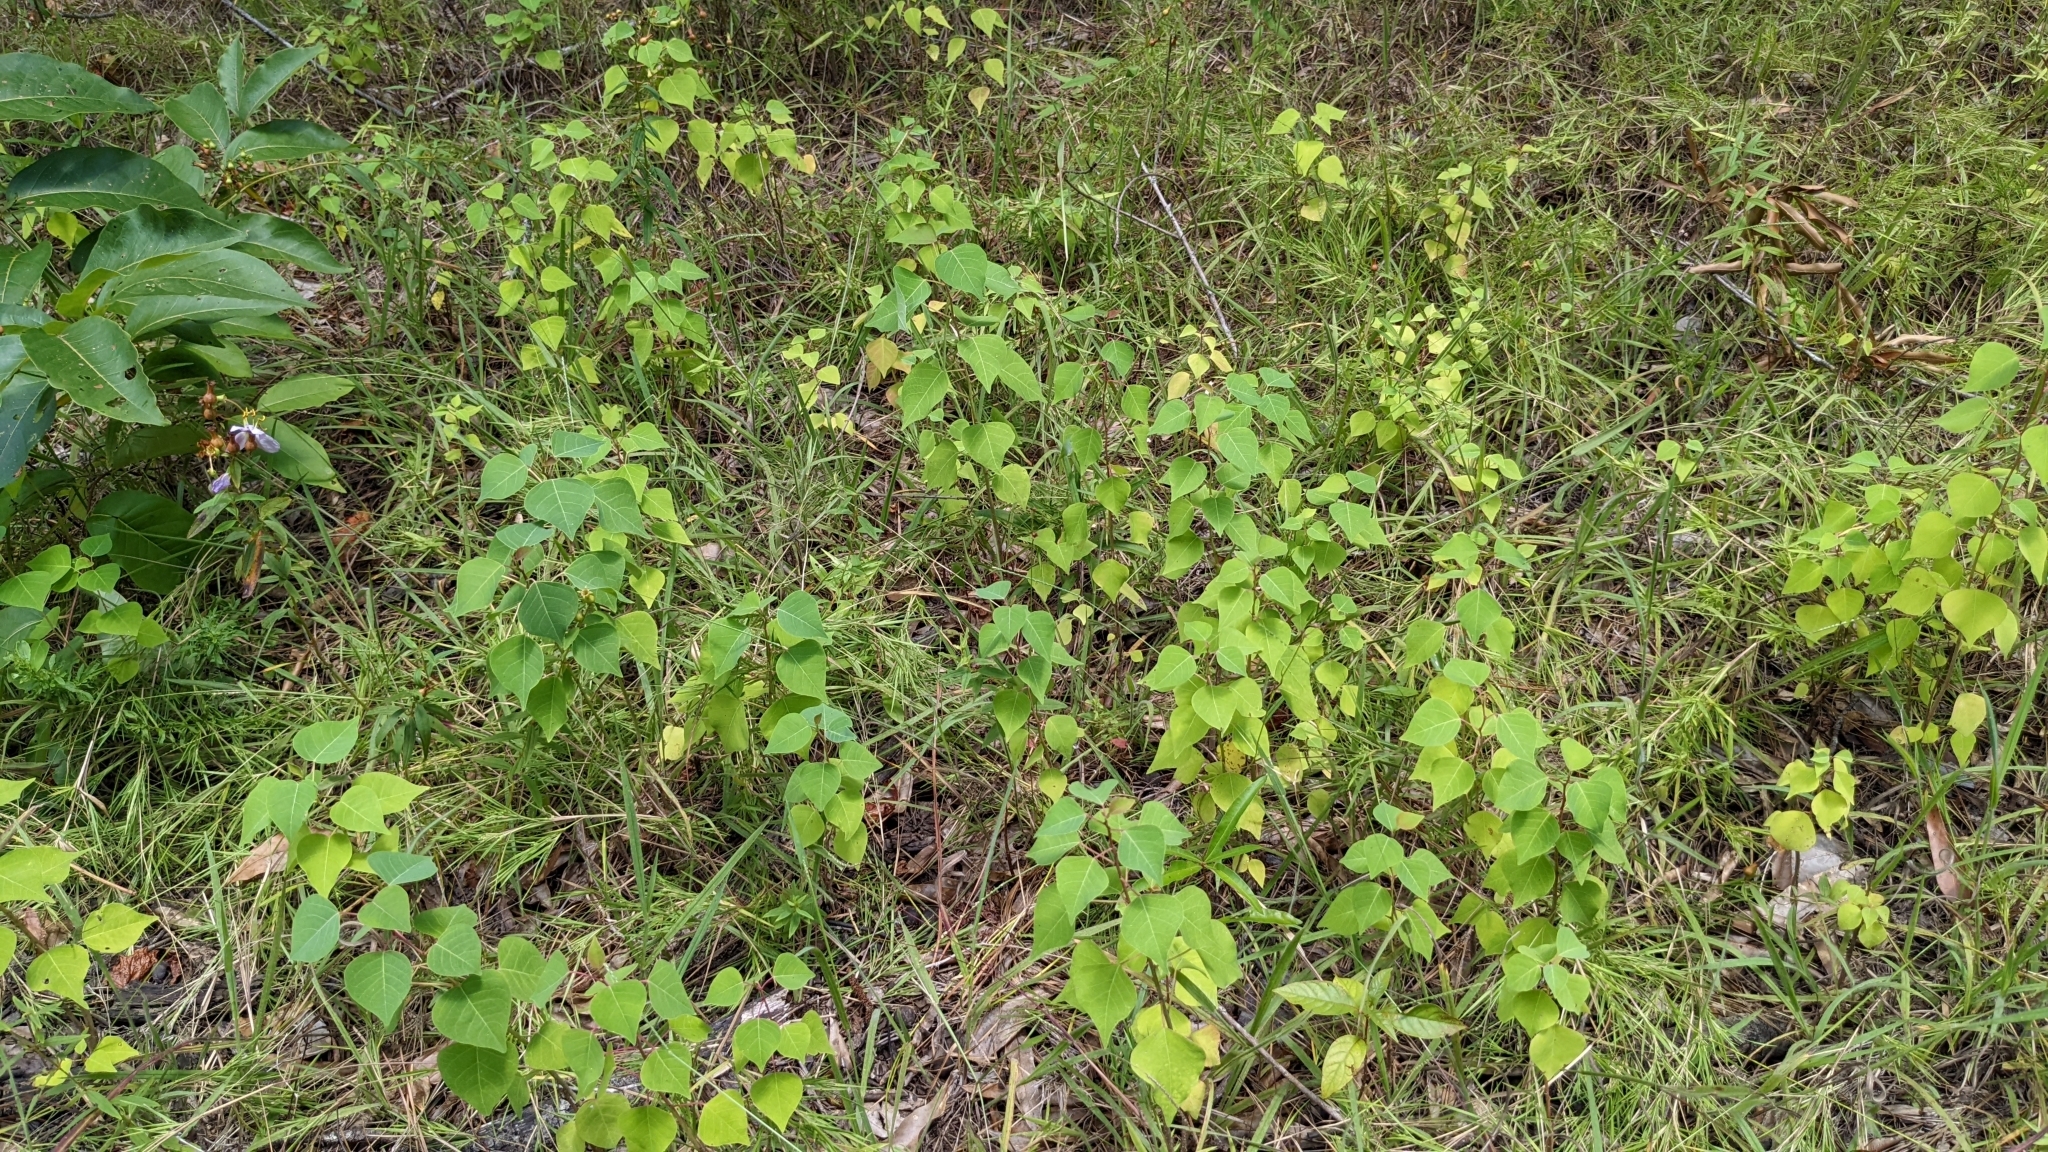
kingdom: Plantae
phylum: Tracheophyta
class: Magnoliopsida
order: Malpighiales
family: Euphorbiaceae
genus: Triadica
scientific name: Triadica sebifera
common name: Chinese tallow
